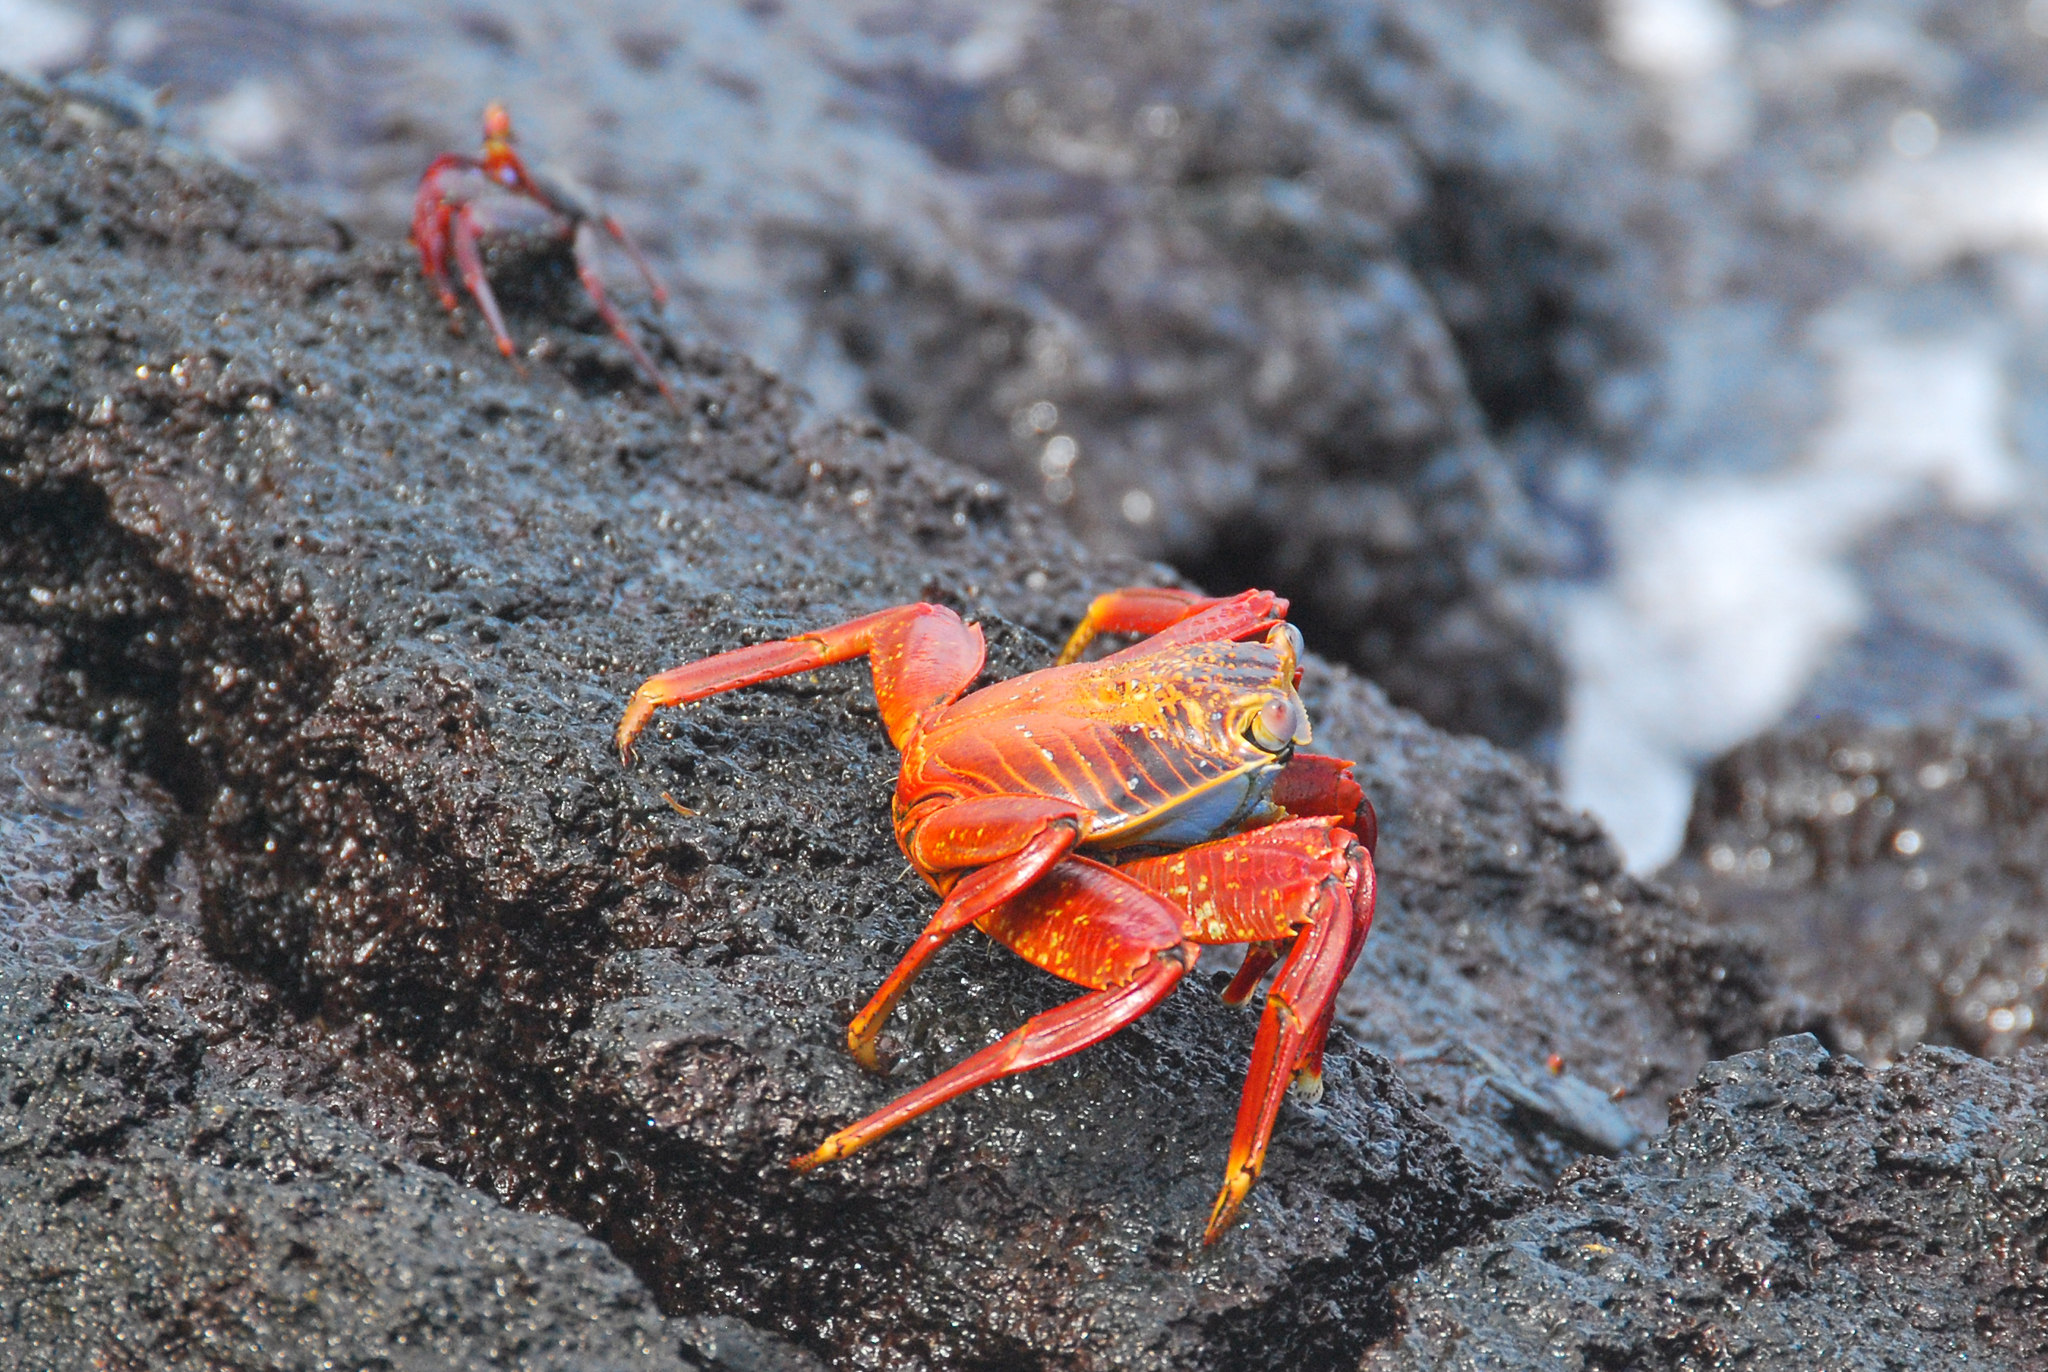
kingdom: Animalia
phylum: Arthropoda
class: Malacostraca
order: Decapoda
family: Grapsidae
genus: Grapsus
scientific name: Grapsus grapsus
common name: Sally lightfoot
